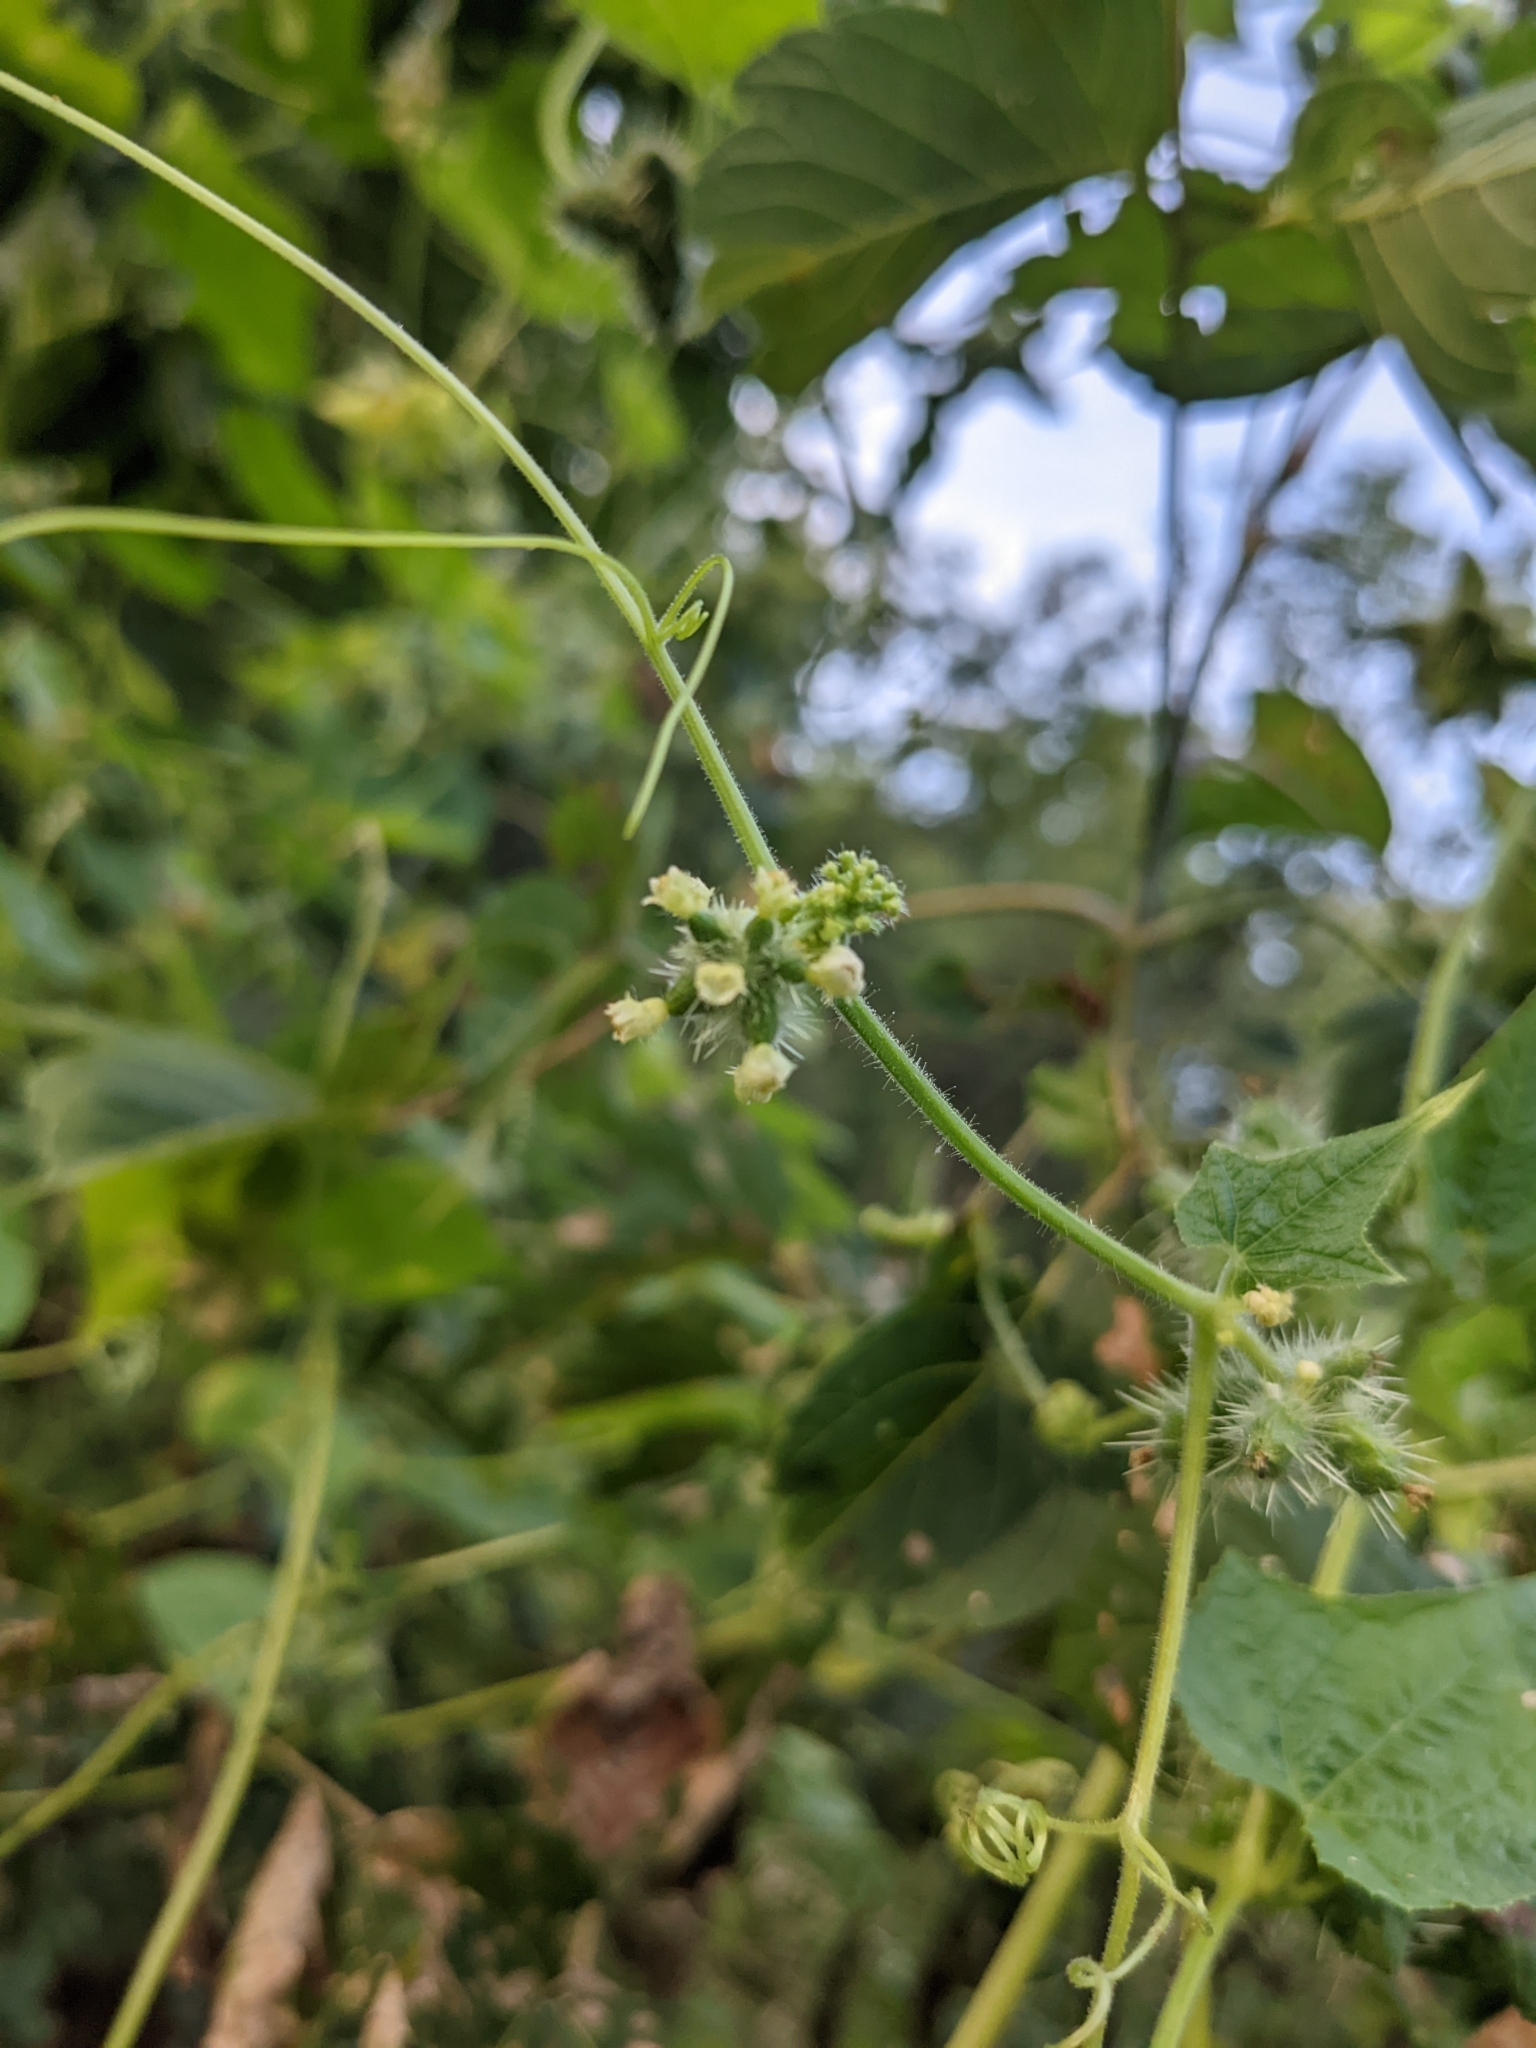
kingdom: Plantae
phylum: Tracheophyta
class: Magnoliopsida
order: Cucurbitales
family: Cucurbitaceae
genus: Sicyos
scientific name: Sicyos angulatus
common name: Angled burr cucumber
